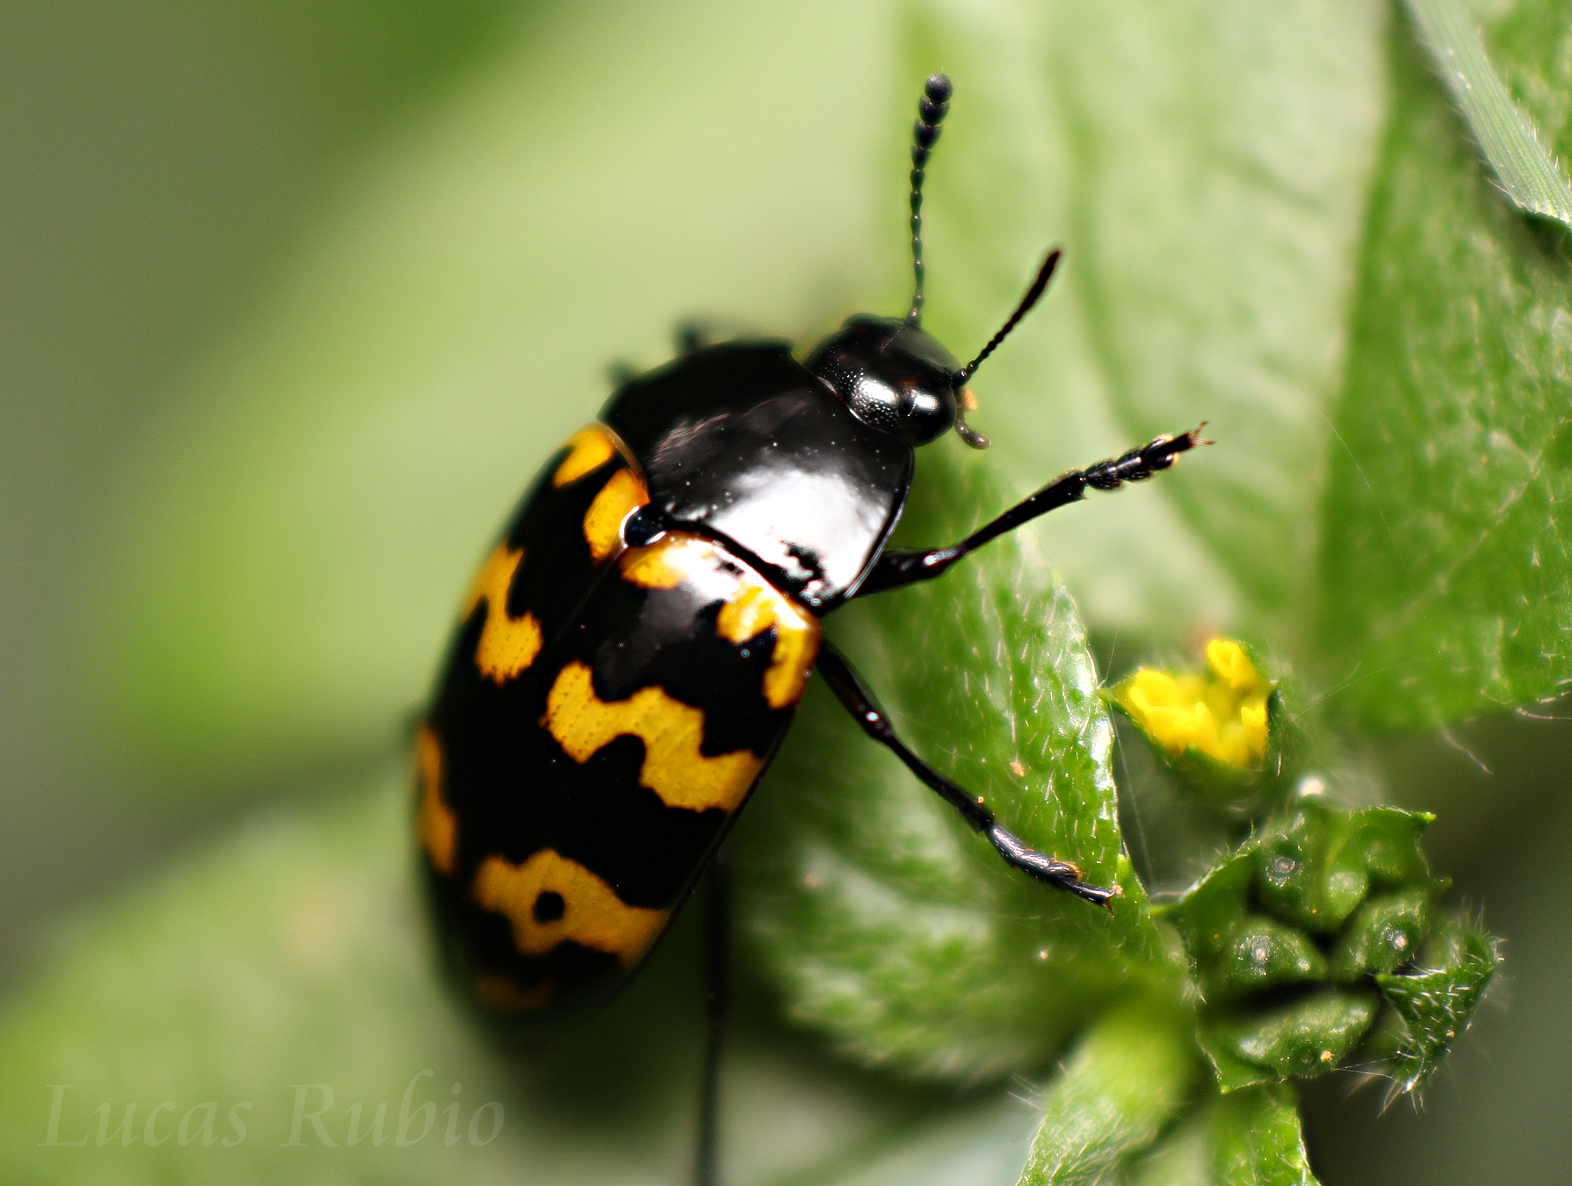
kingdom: Animalia
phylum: Arthropoda
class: Insecta
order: Coleoptera
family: Erotylidae
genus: Iphiclus
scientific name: Iphiclus
